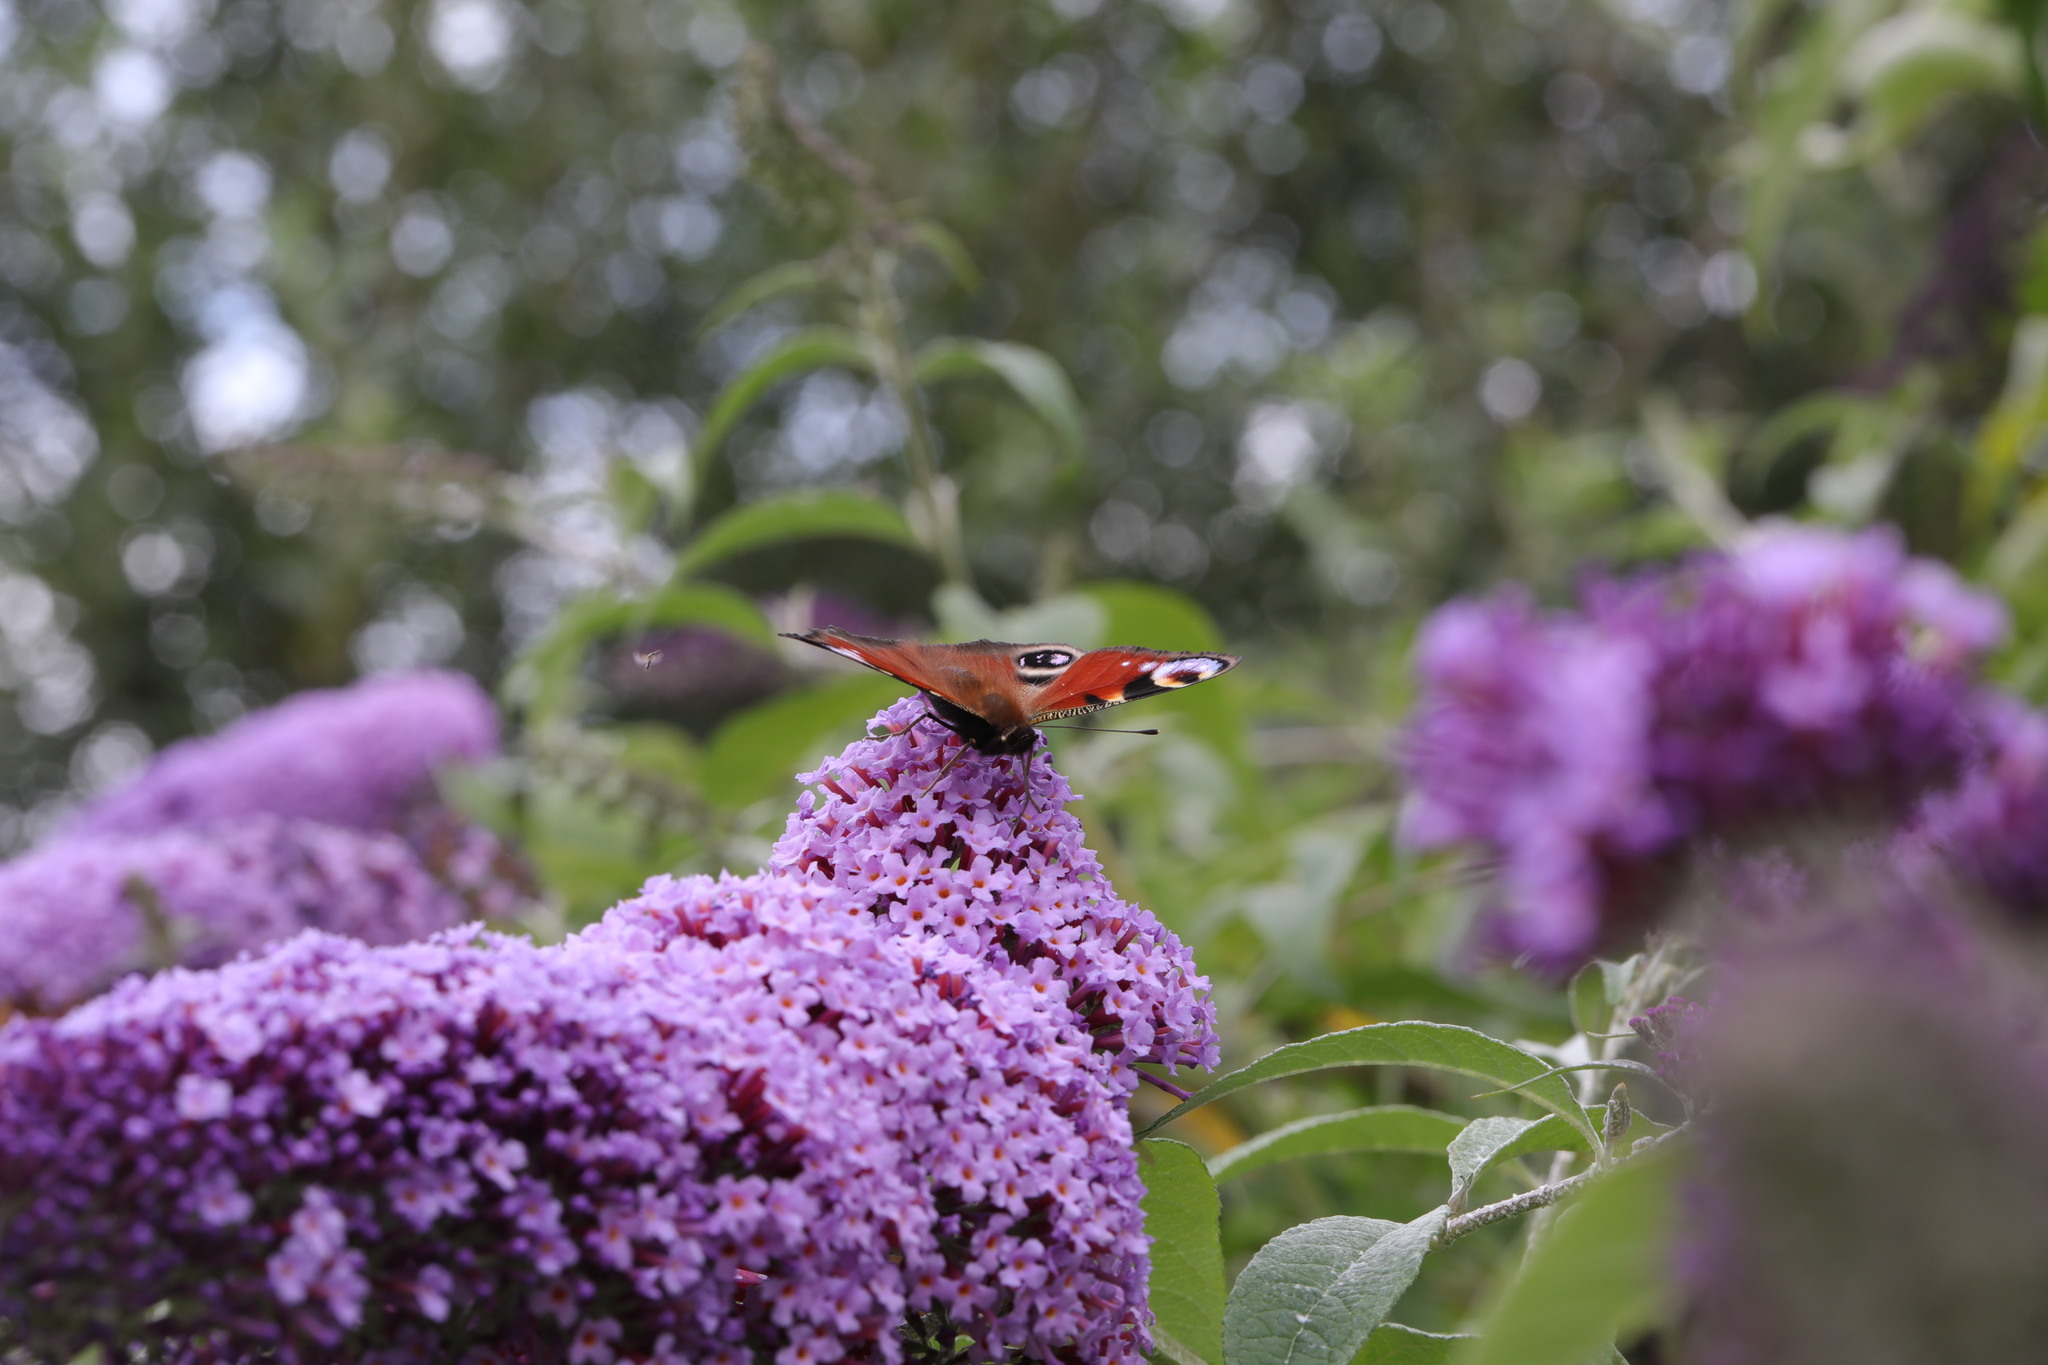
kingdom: Animalia
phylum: Arthropoda
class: Insecta
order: Lepidoptera
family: Nymphalidae
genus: Aglais
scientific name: Aglais io
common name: Peacock
